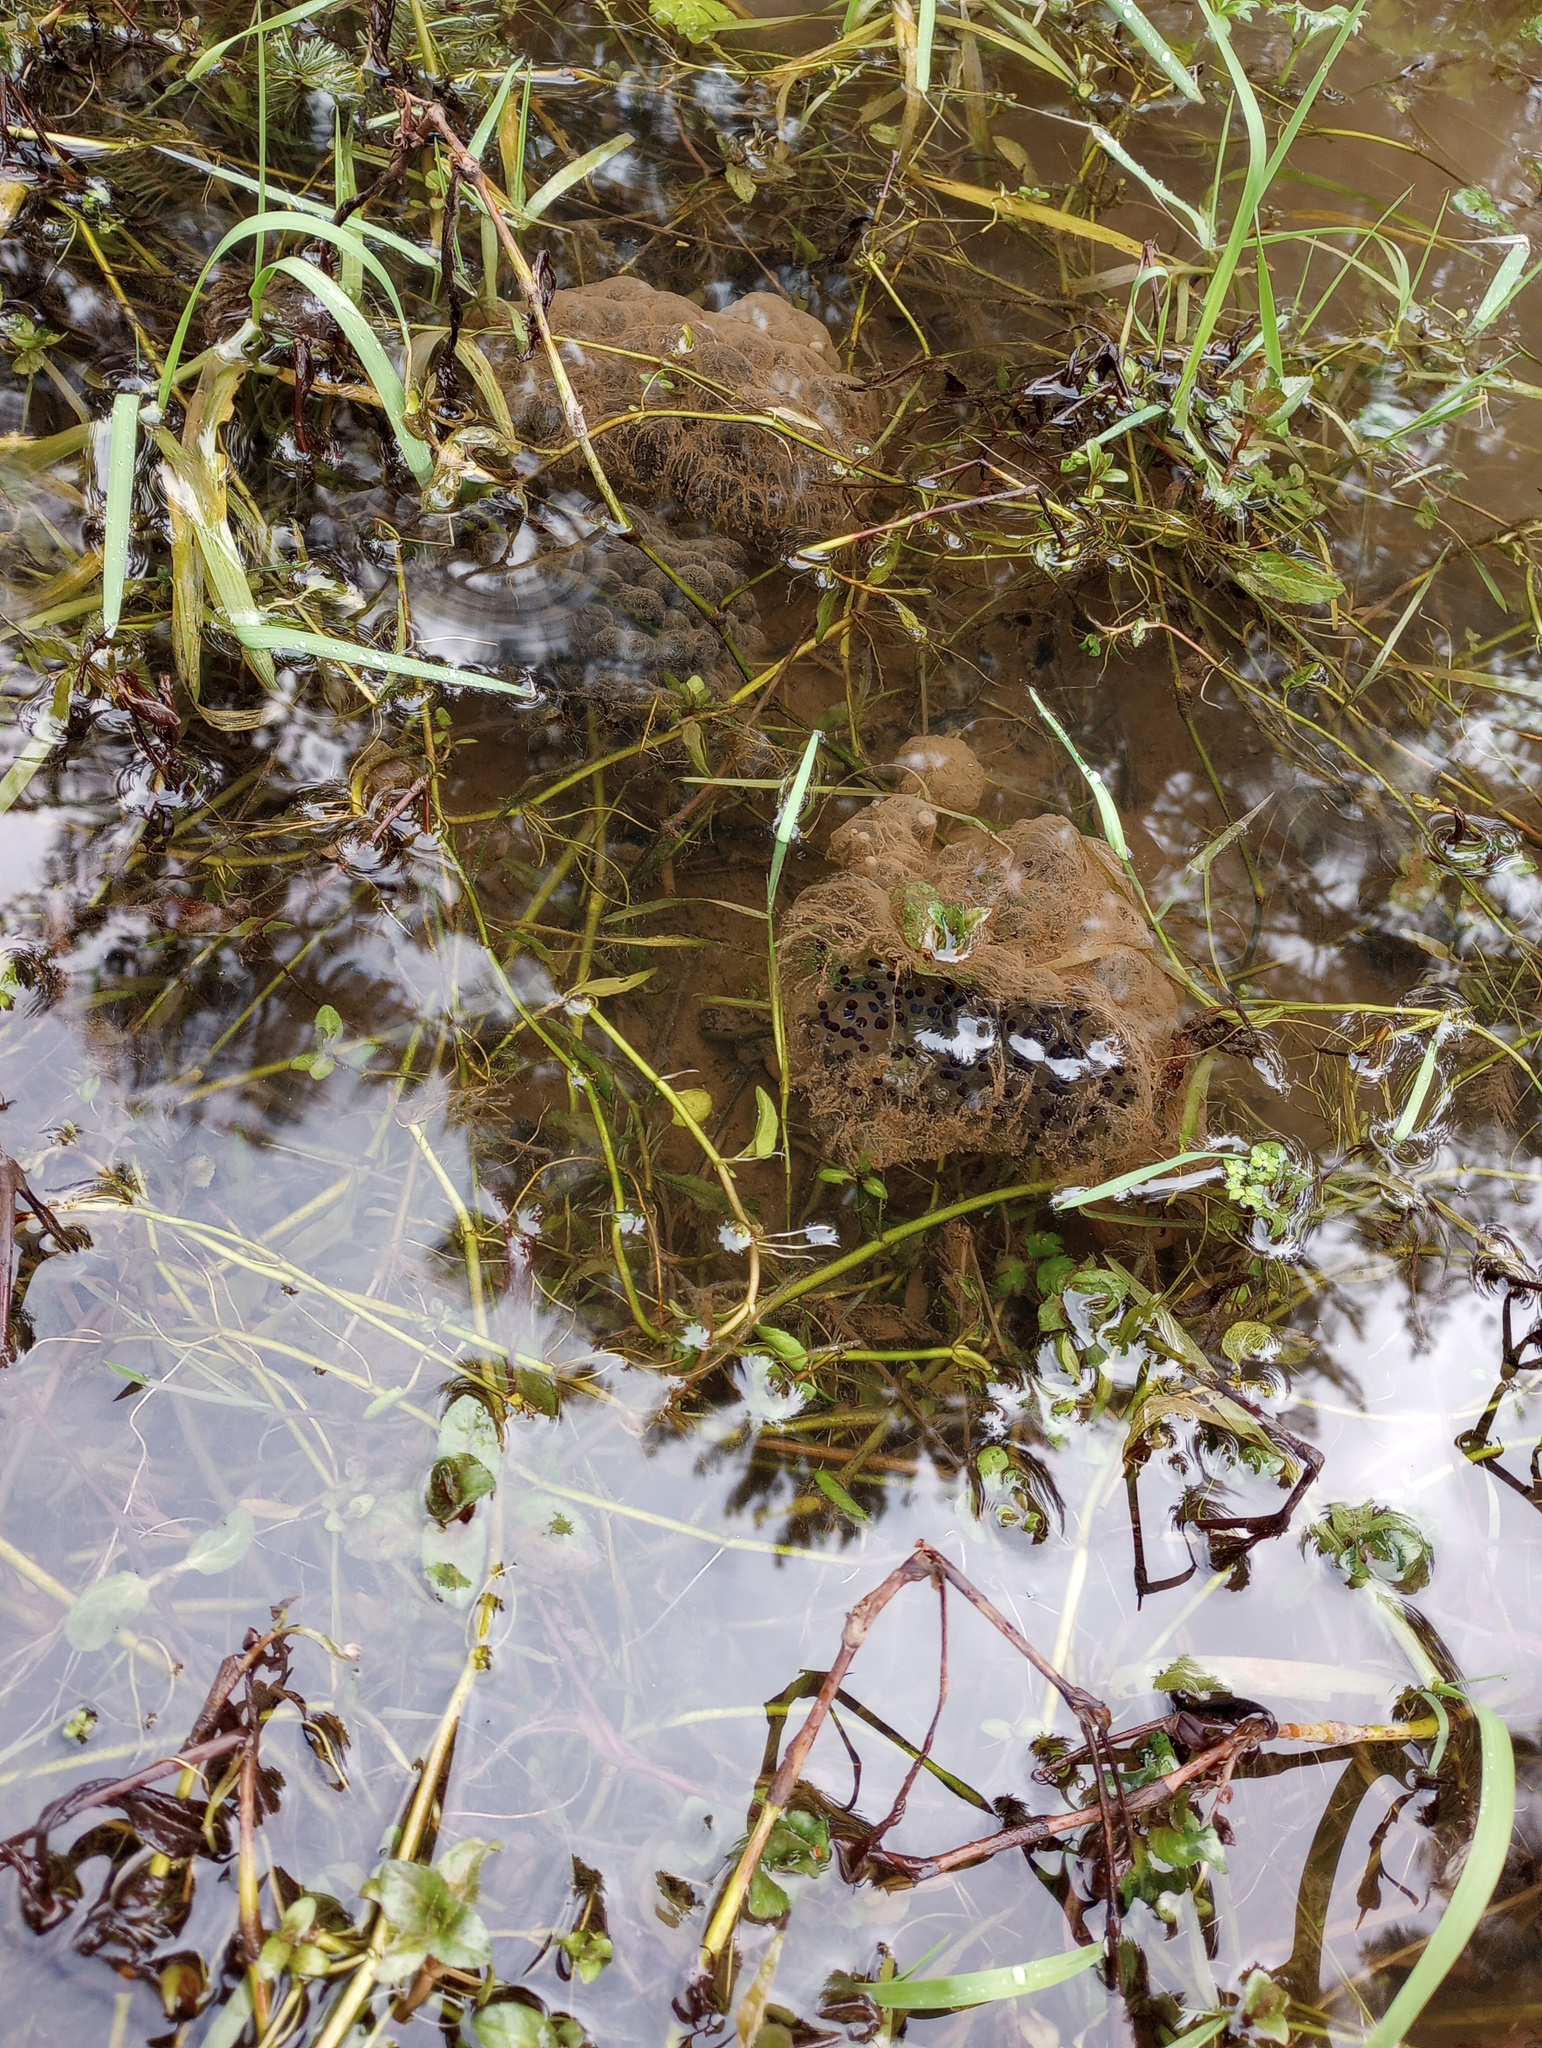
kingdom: Animalia
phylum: Chordata
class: Amphibia
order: Anura
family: Ranidae
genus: Rana
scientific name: Rana aurora
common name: Red-legged frog
